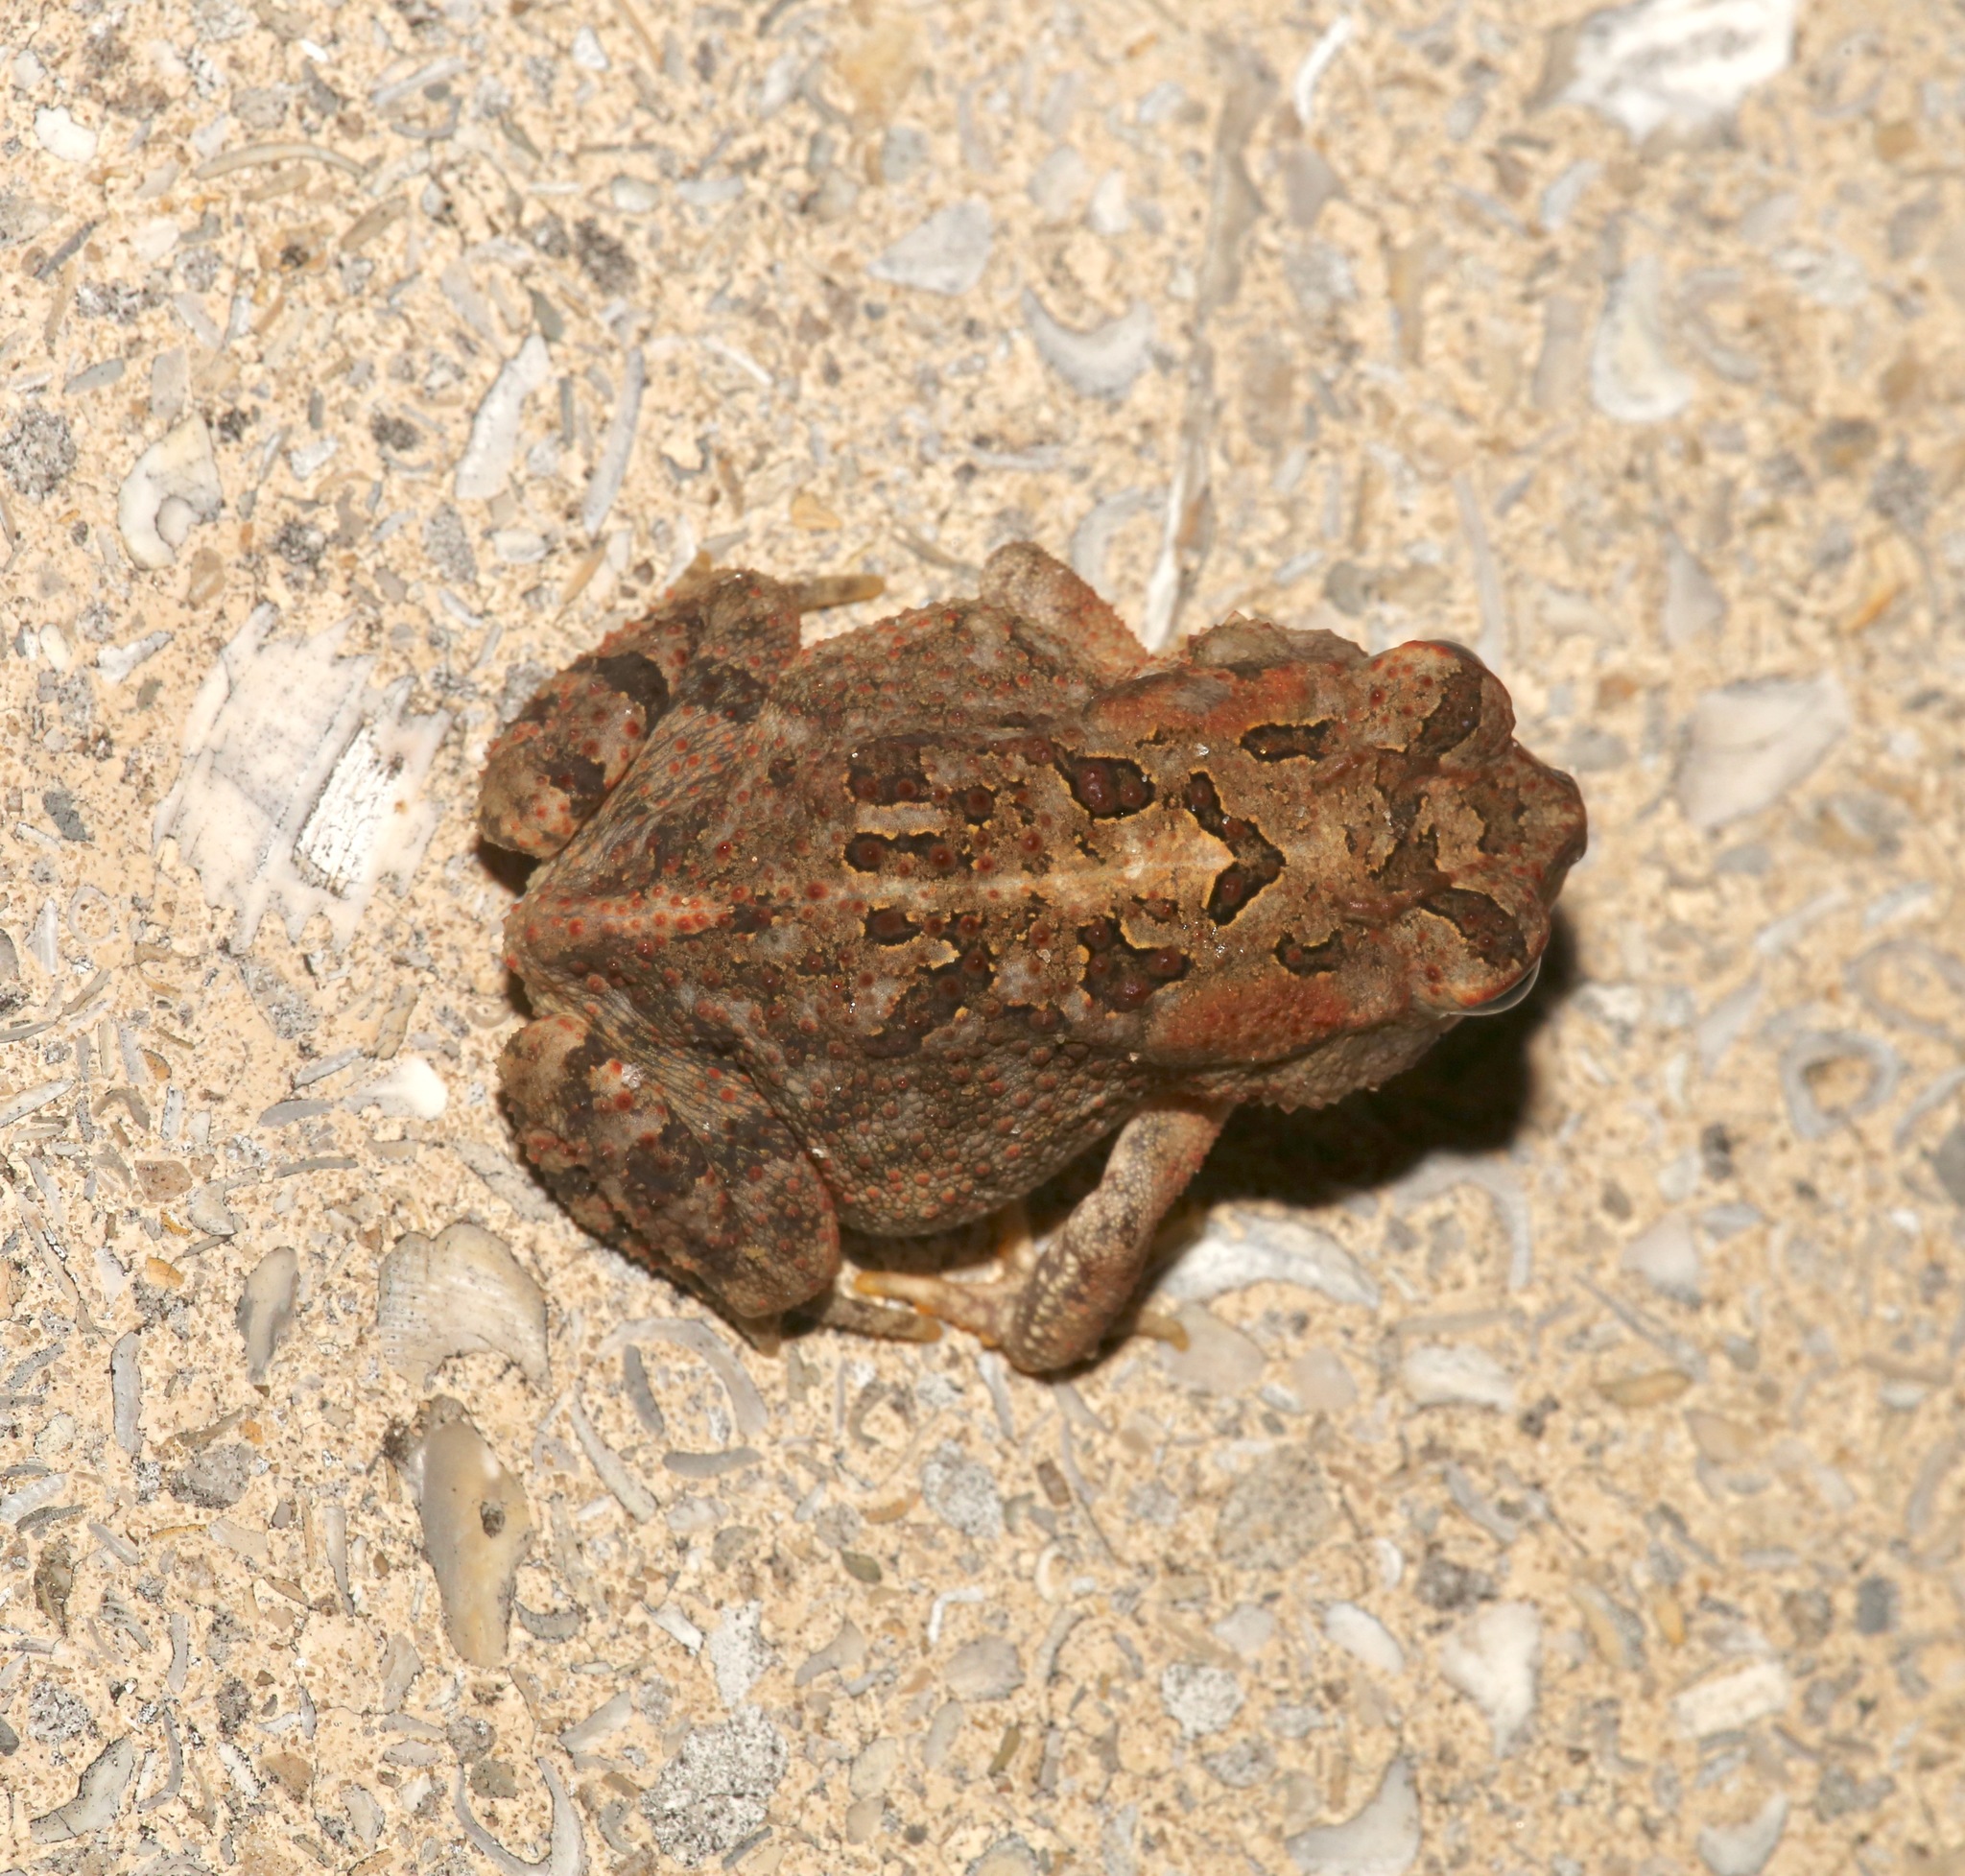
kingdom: Animalia
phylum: Chordata
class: Amphibia
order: Anura
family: Bufonidae
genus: Anaxyrus
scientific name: Anaxyrus terrestris
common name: Southern toad
